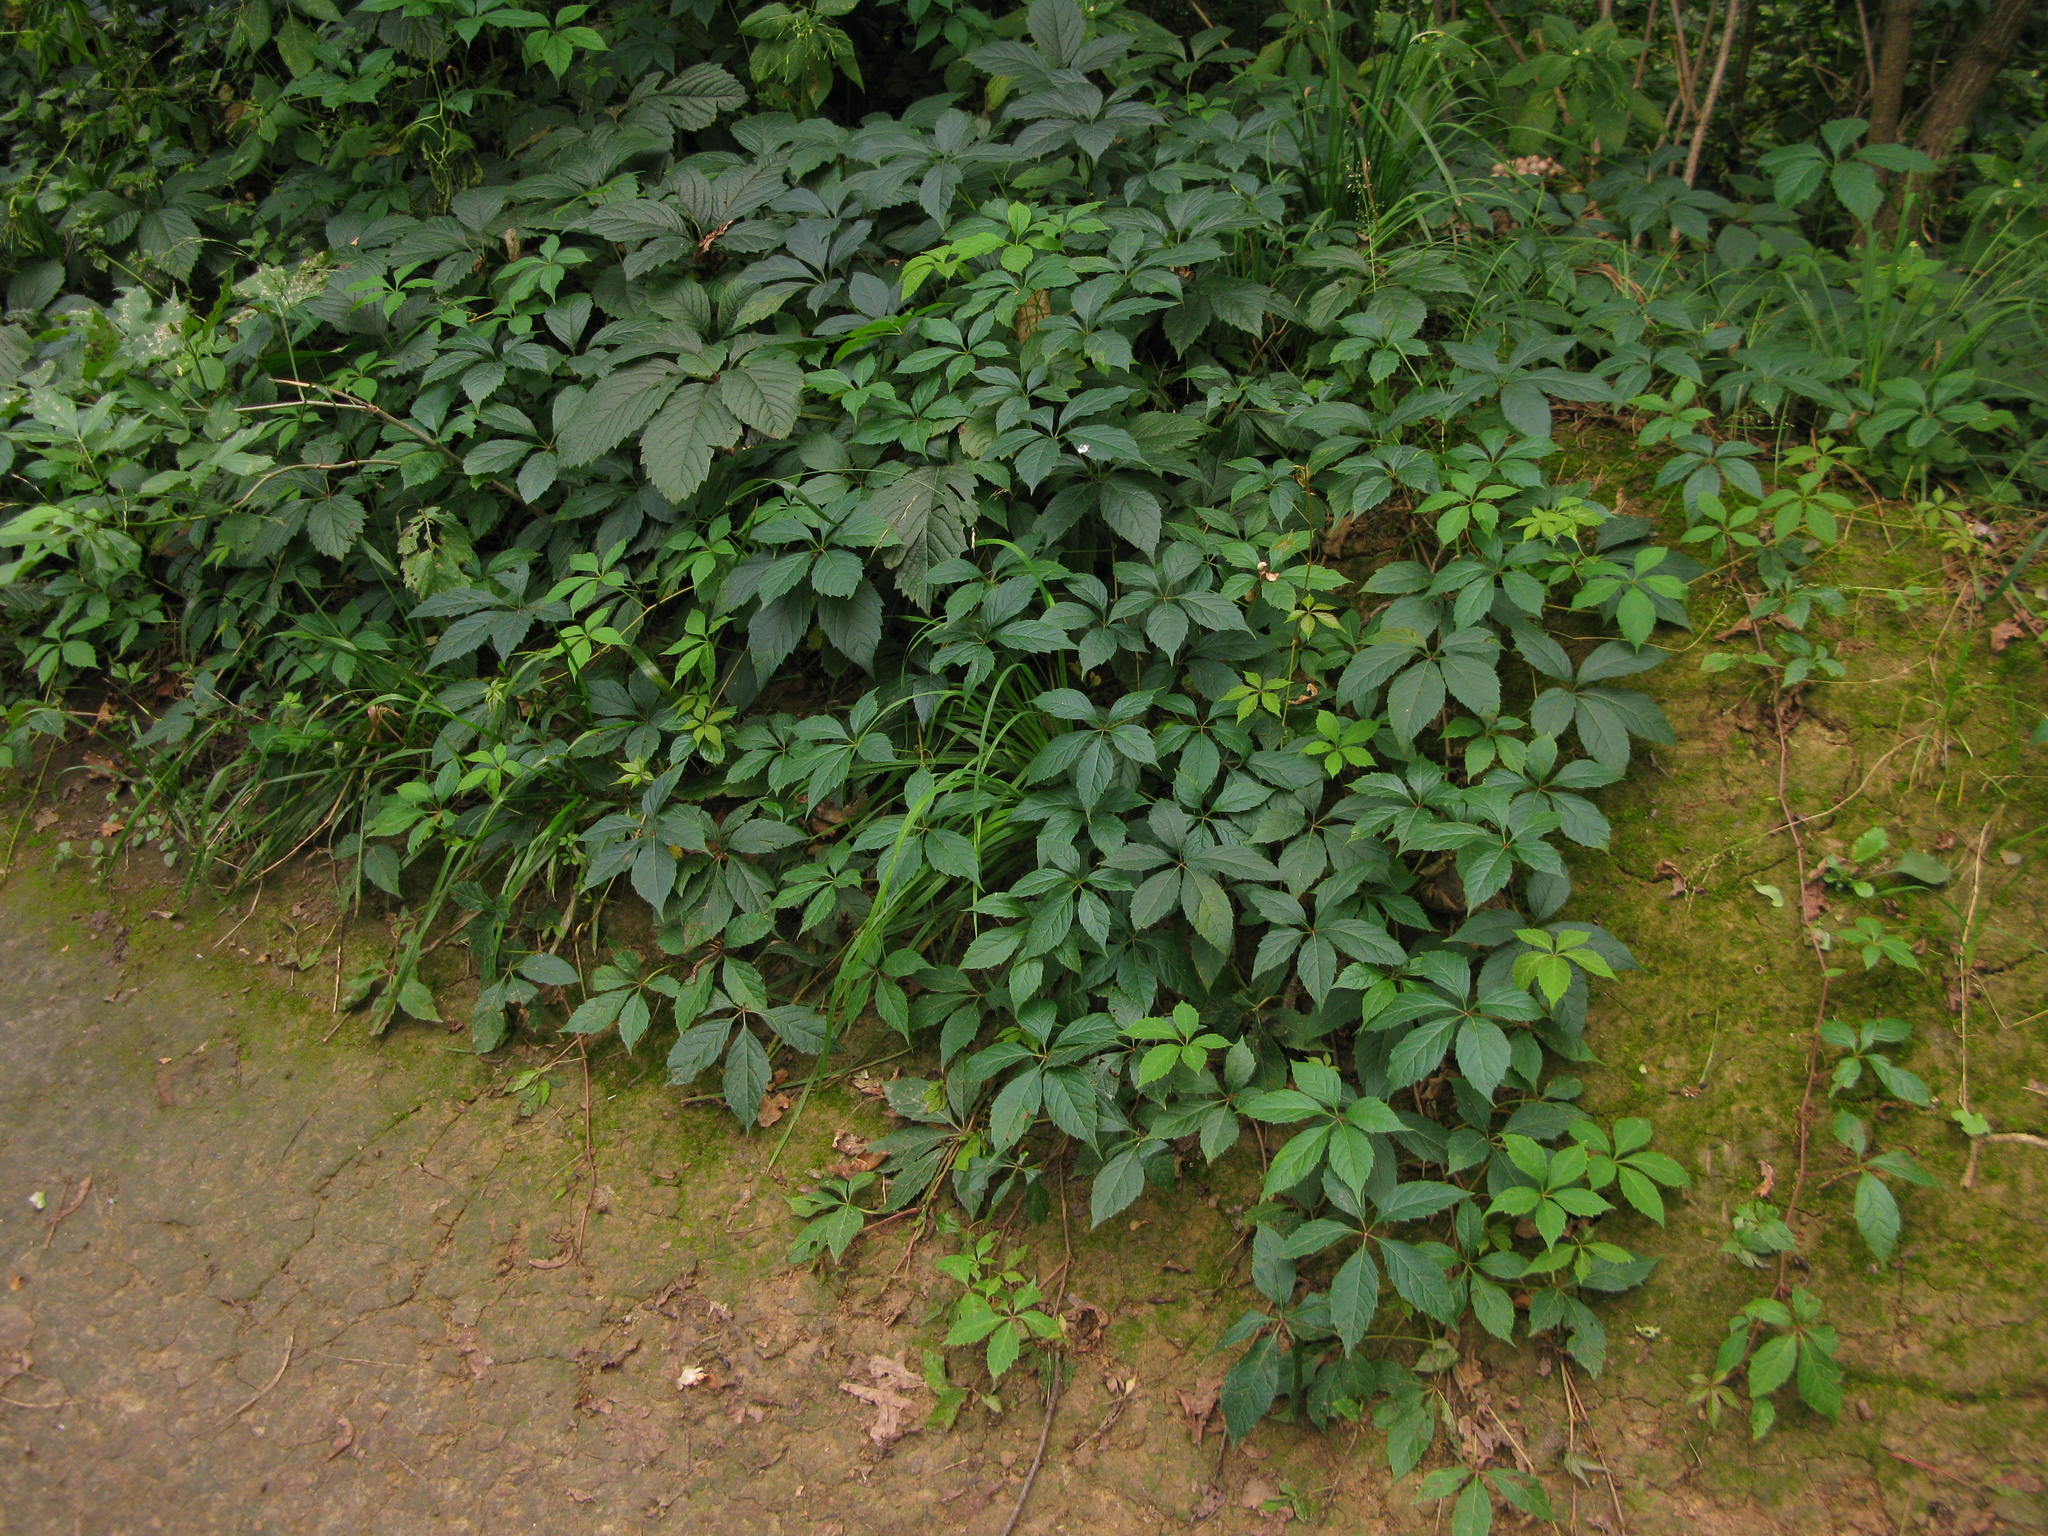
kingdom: Plantae
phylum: Tracheophyta
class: Magnoliopsida
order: Vitales
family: Vitaceae
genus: Parthenocissus
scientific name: Parthenocissus inserta
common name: False virginia-creeper
